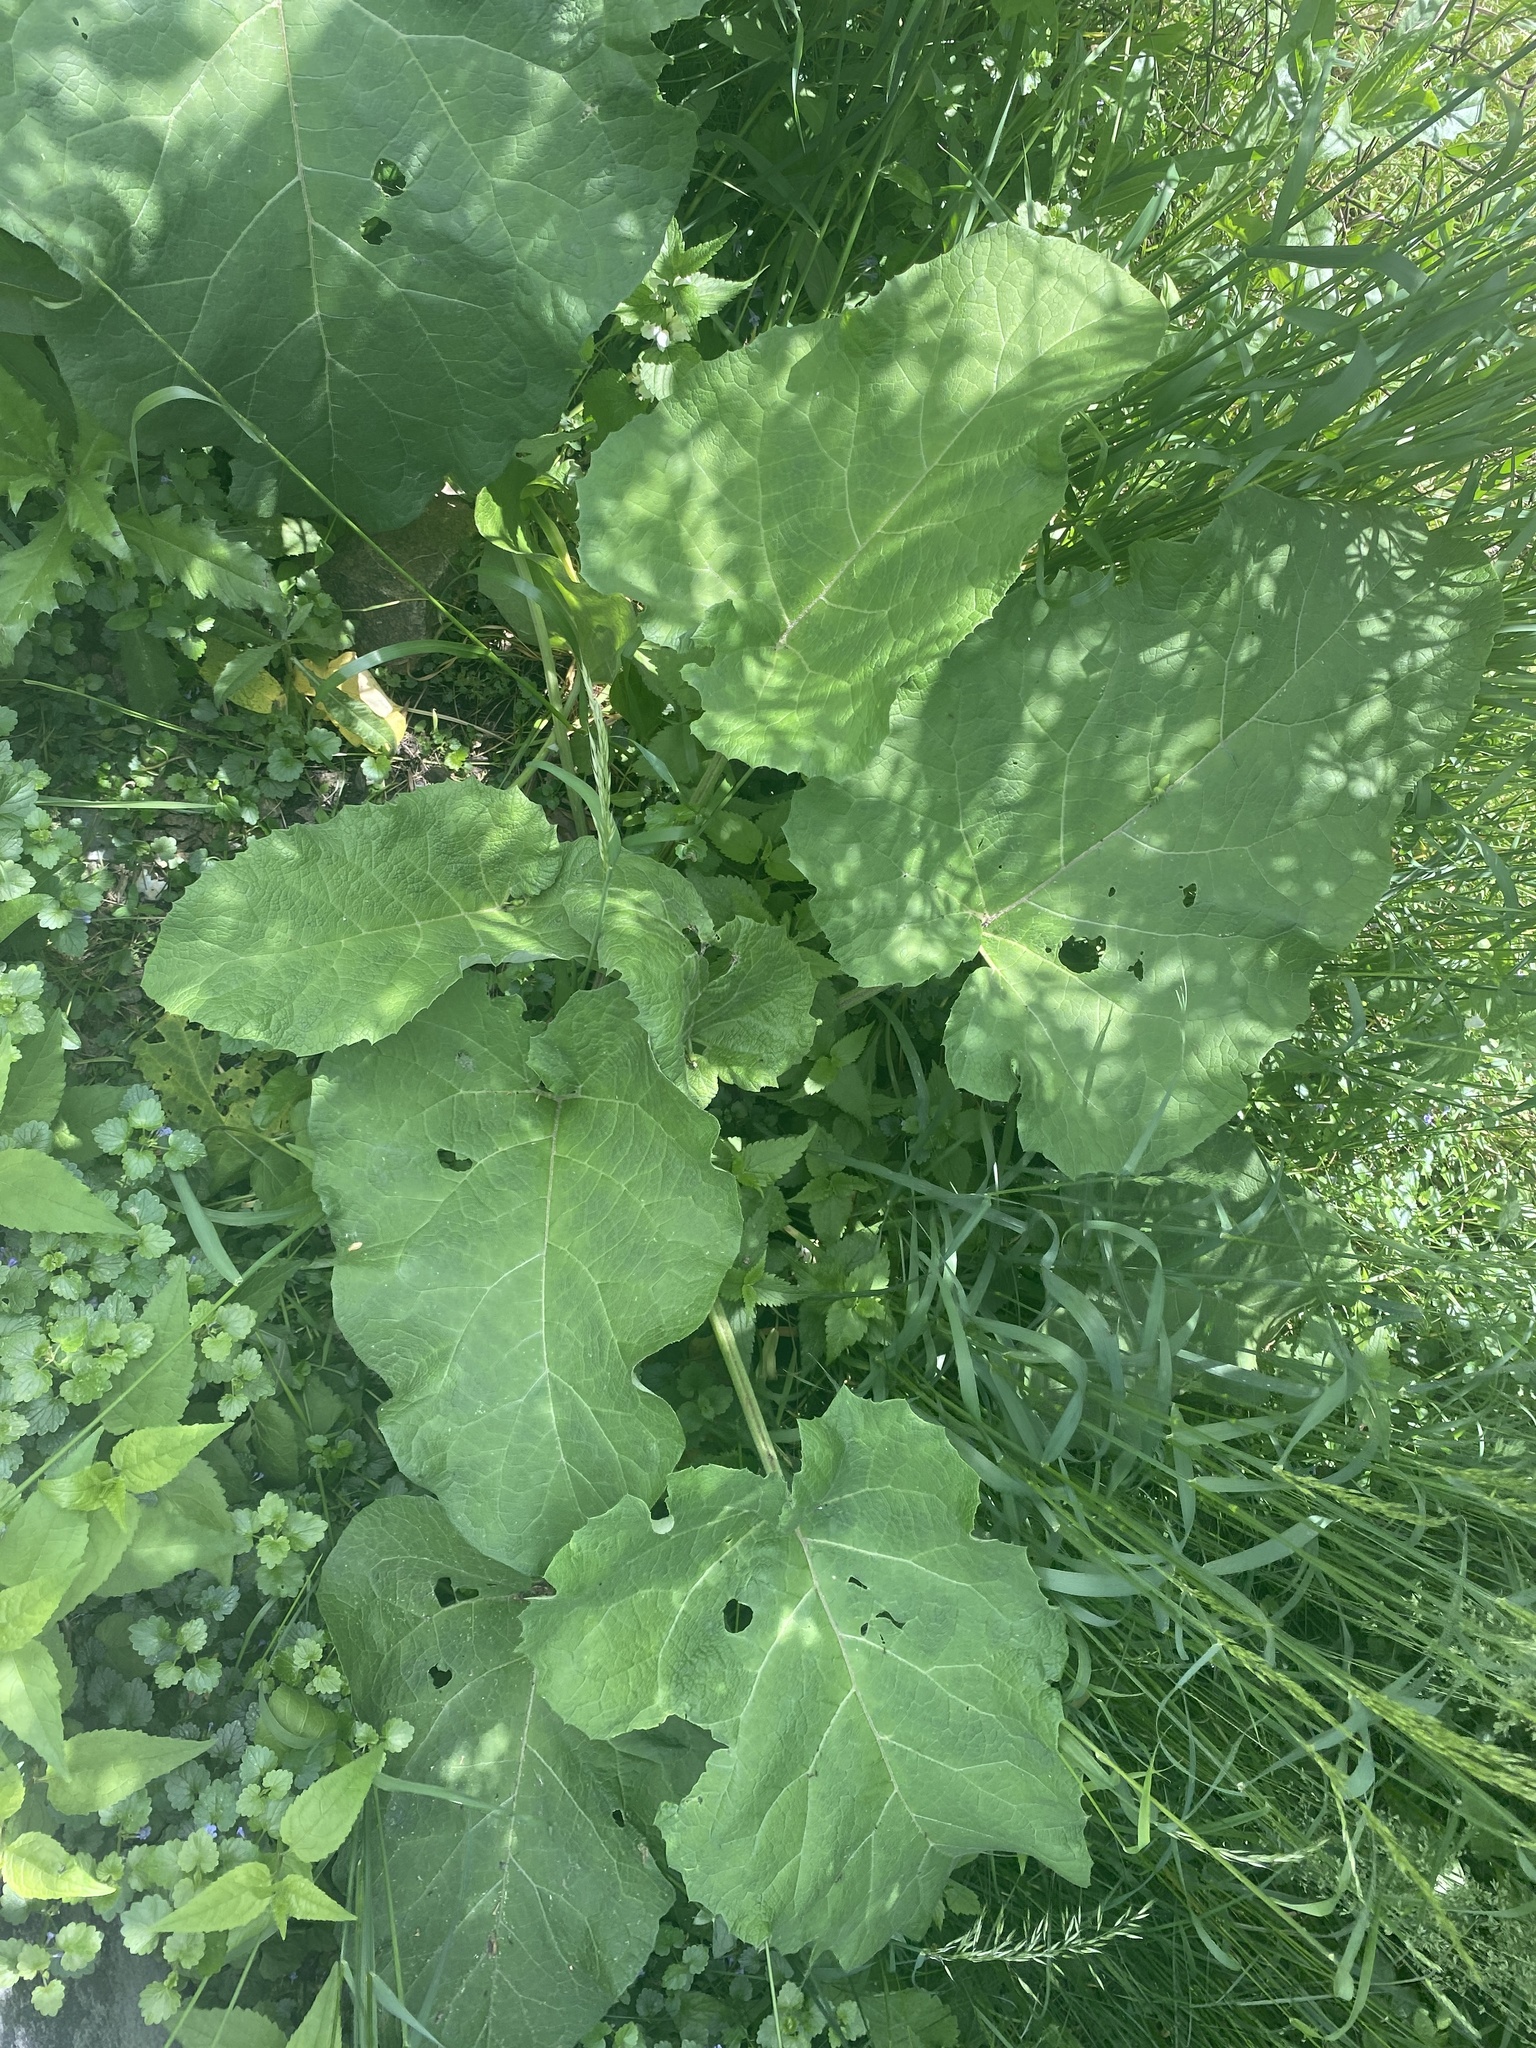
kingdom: Plantae
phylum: Tracheophyta
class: Magnoliopsida
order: Asterales
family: Asteraceae
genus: Arctium
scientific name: Arctium
